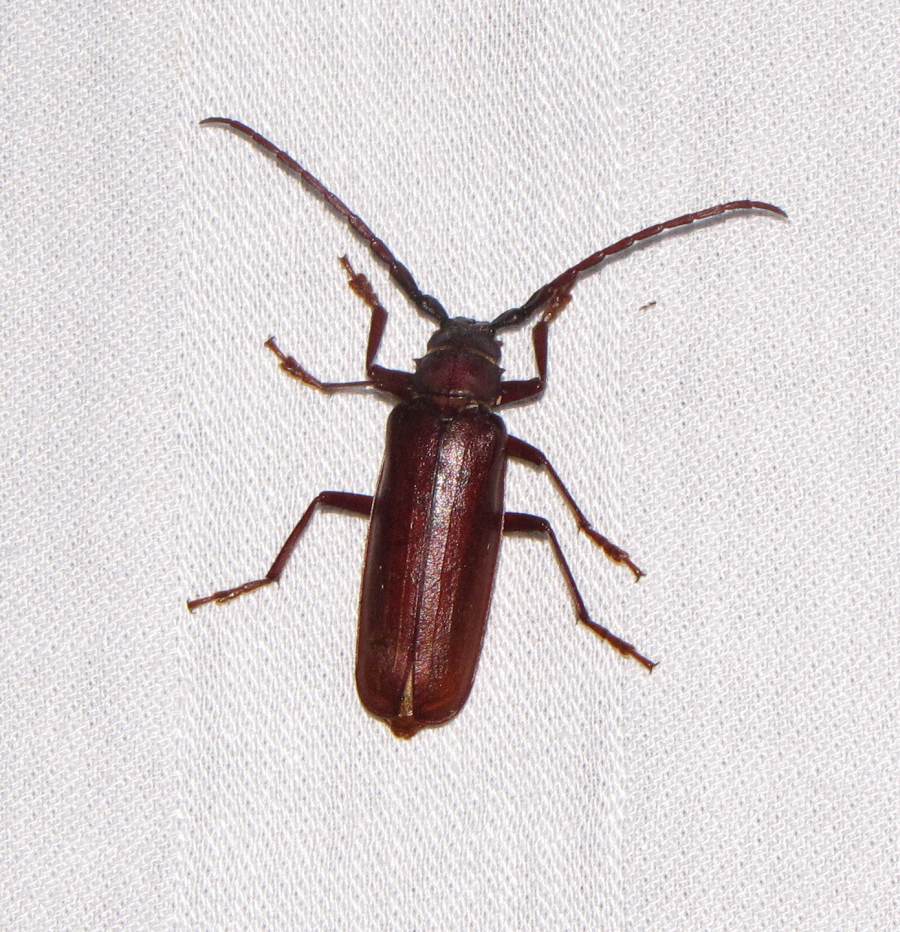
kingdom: Animalia
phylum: Arthropoda
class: Insecta
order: Coleoptera
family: Cerambycidae
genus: Orthosoma
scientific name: Orthosoma brunneum
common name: Brown prionid beetle
